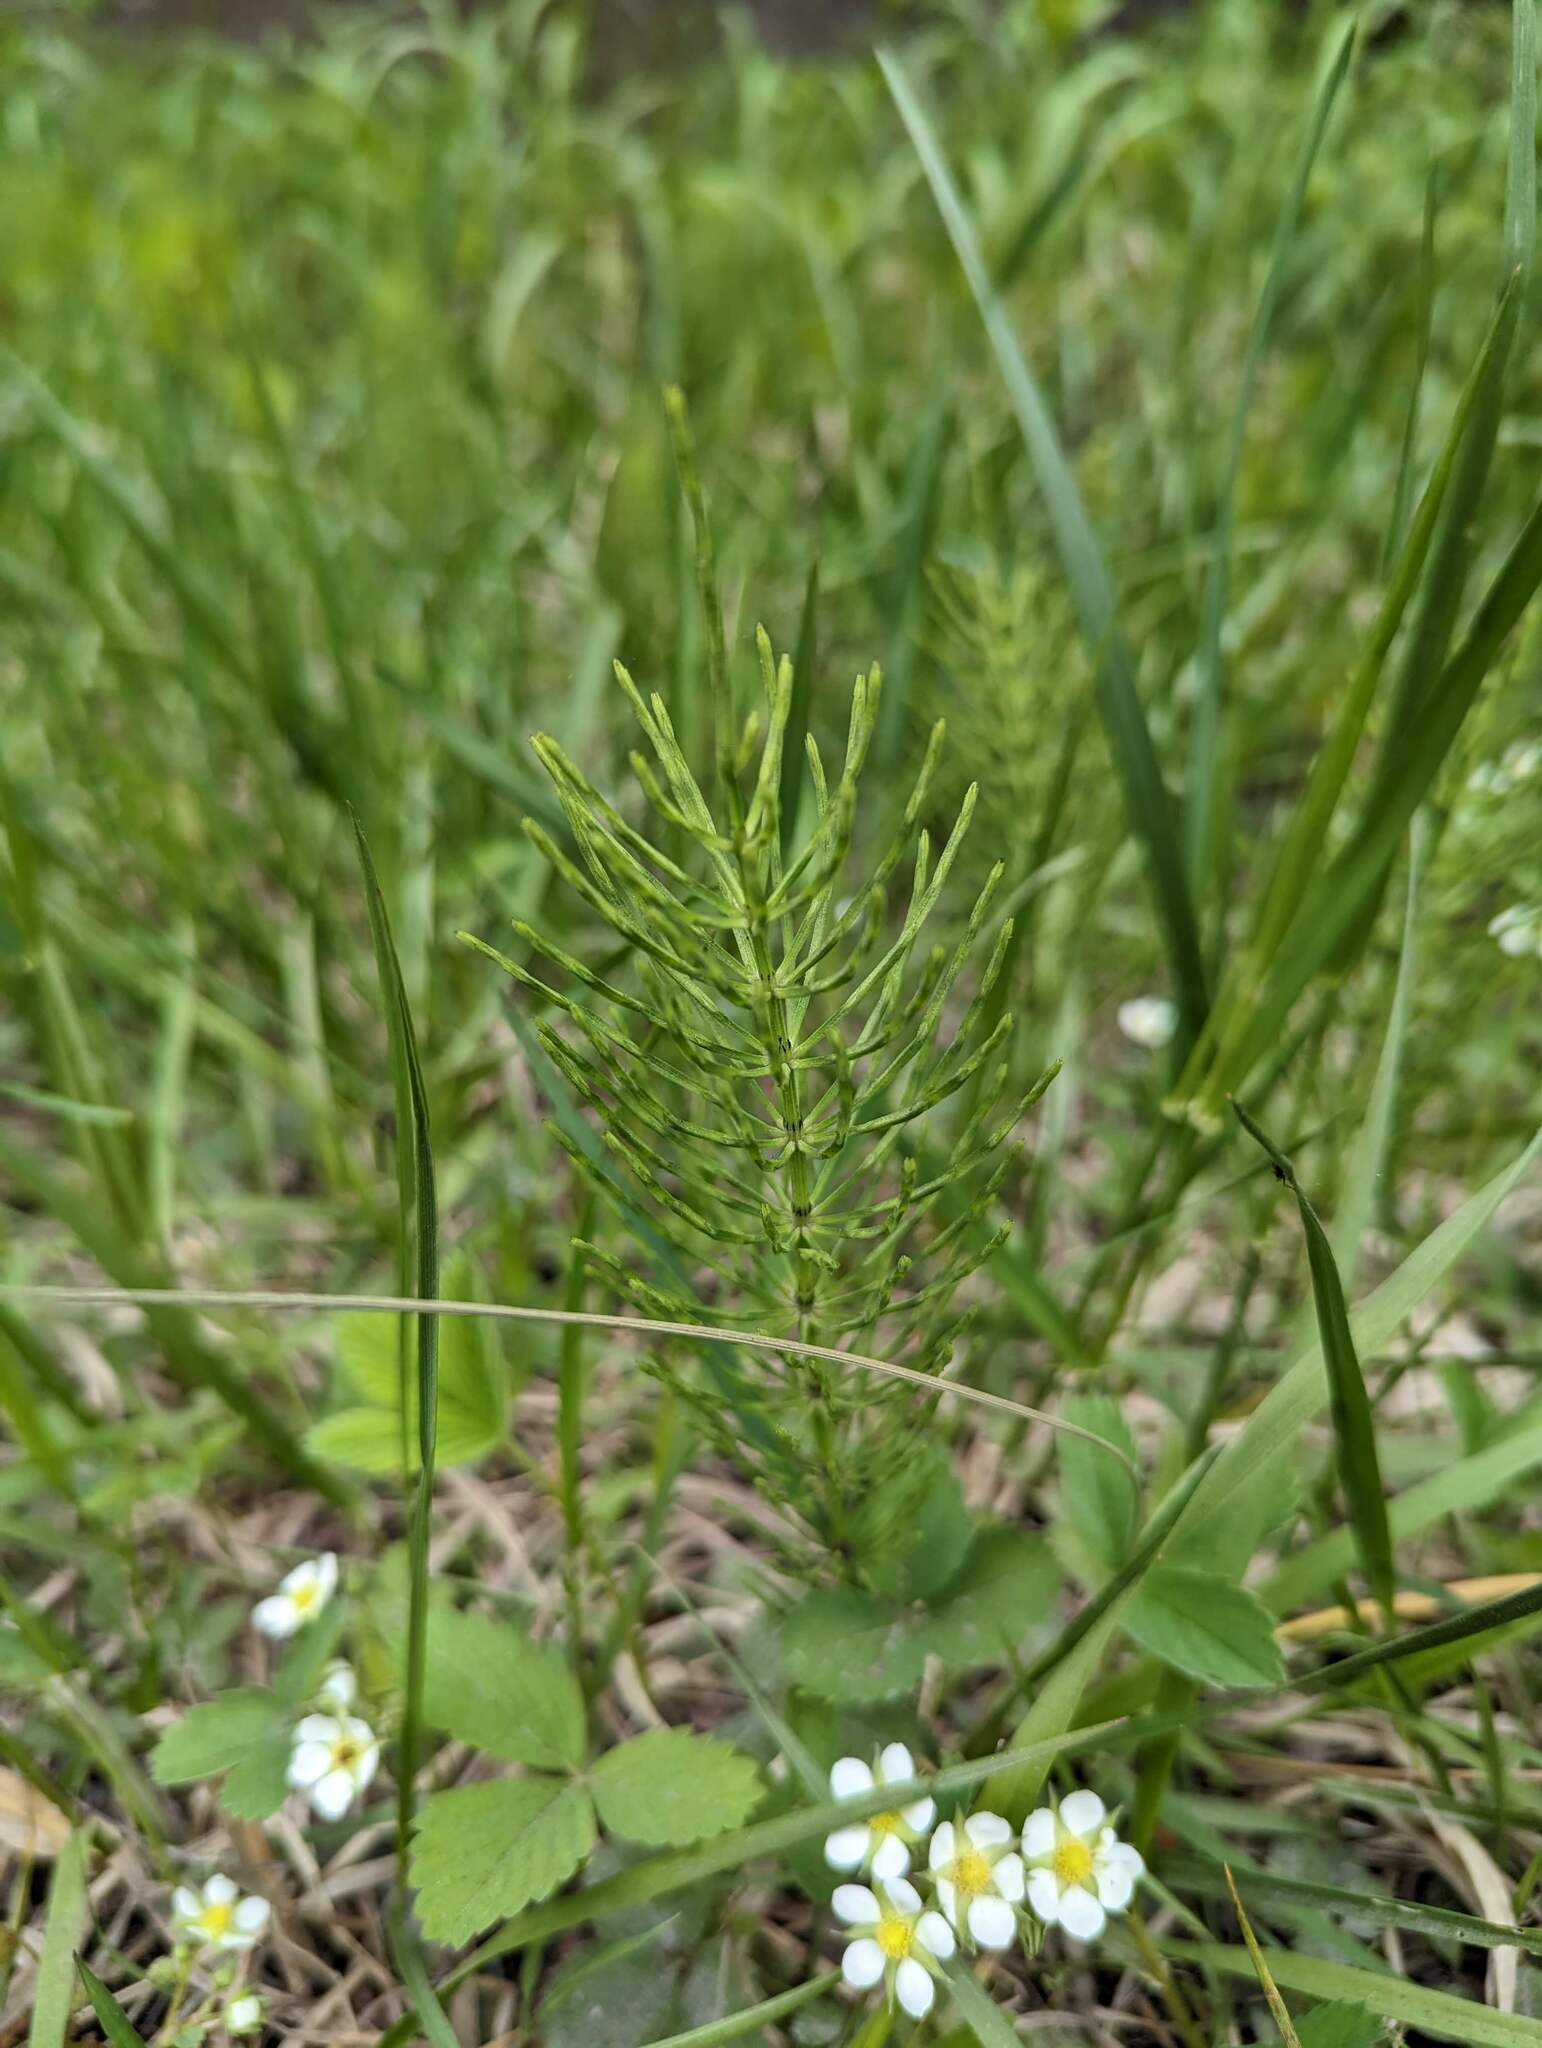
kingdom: Plantae
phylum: Tracheophyta
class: Polypodiopsida
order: Equisetales
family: Equisetaceae
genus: Equisetum
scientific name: Equisetum arvense
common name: Field horsetail
